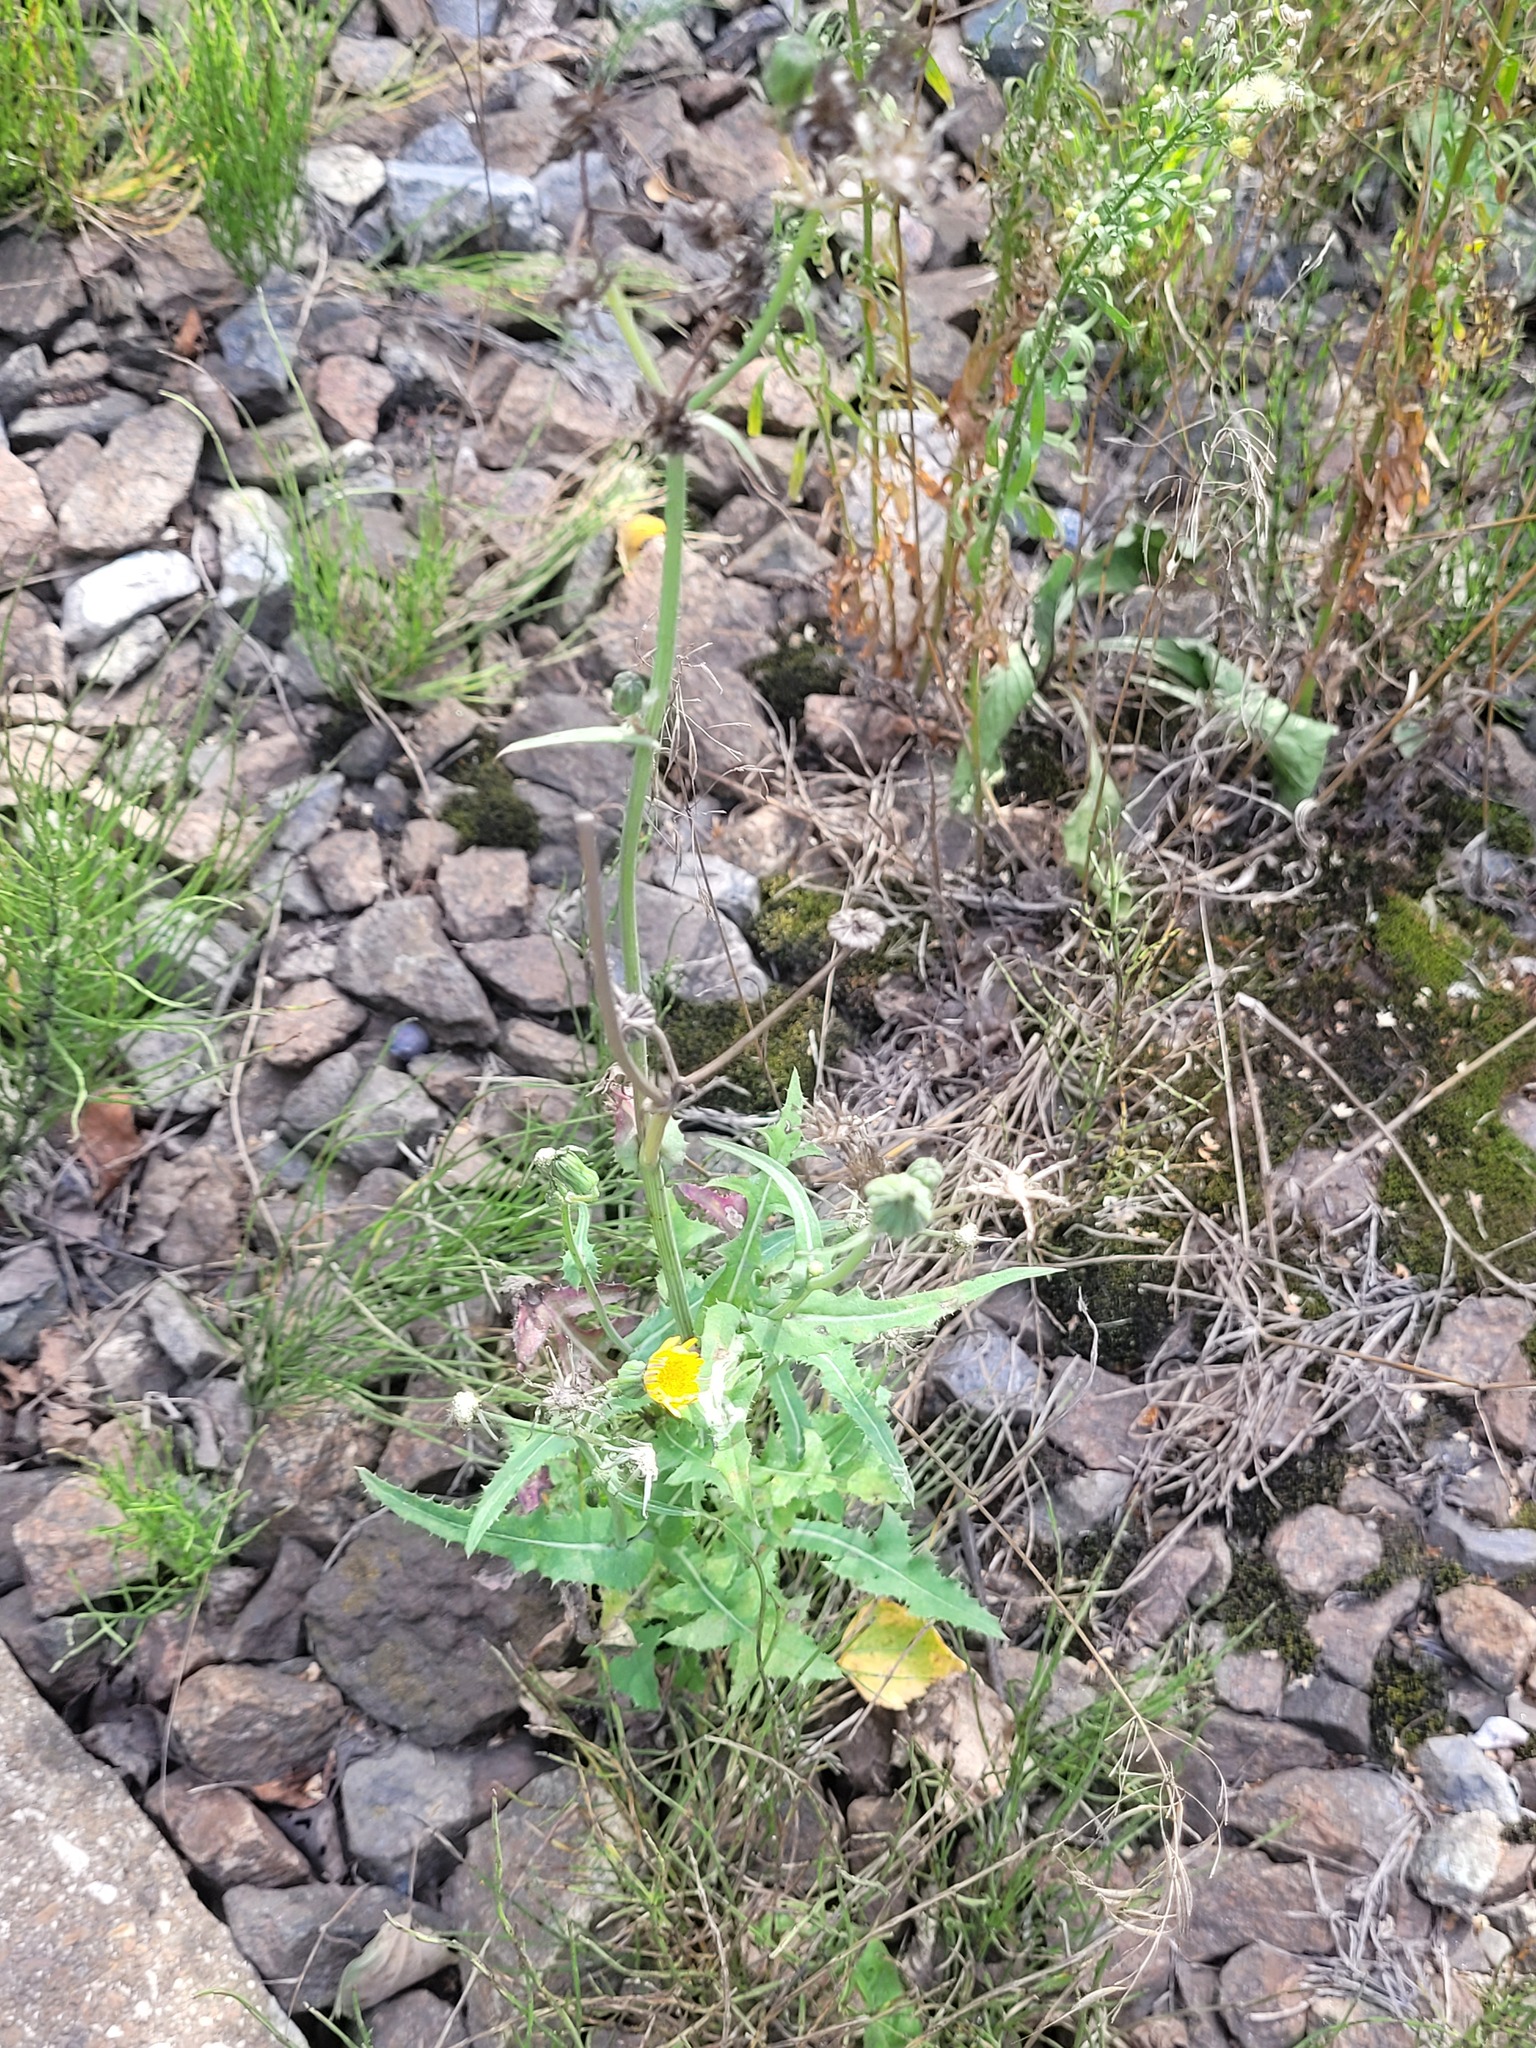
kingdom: Plantae
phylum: Tracheophyta
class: Magnoliopsida
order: Asterales
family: Asteraceae
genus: Sonchus
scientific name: Sonchus oleraceus
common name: Common sowthistle
